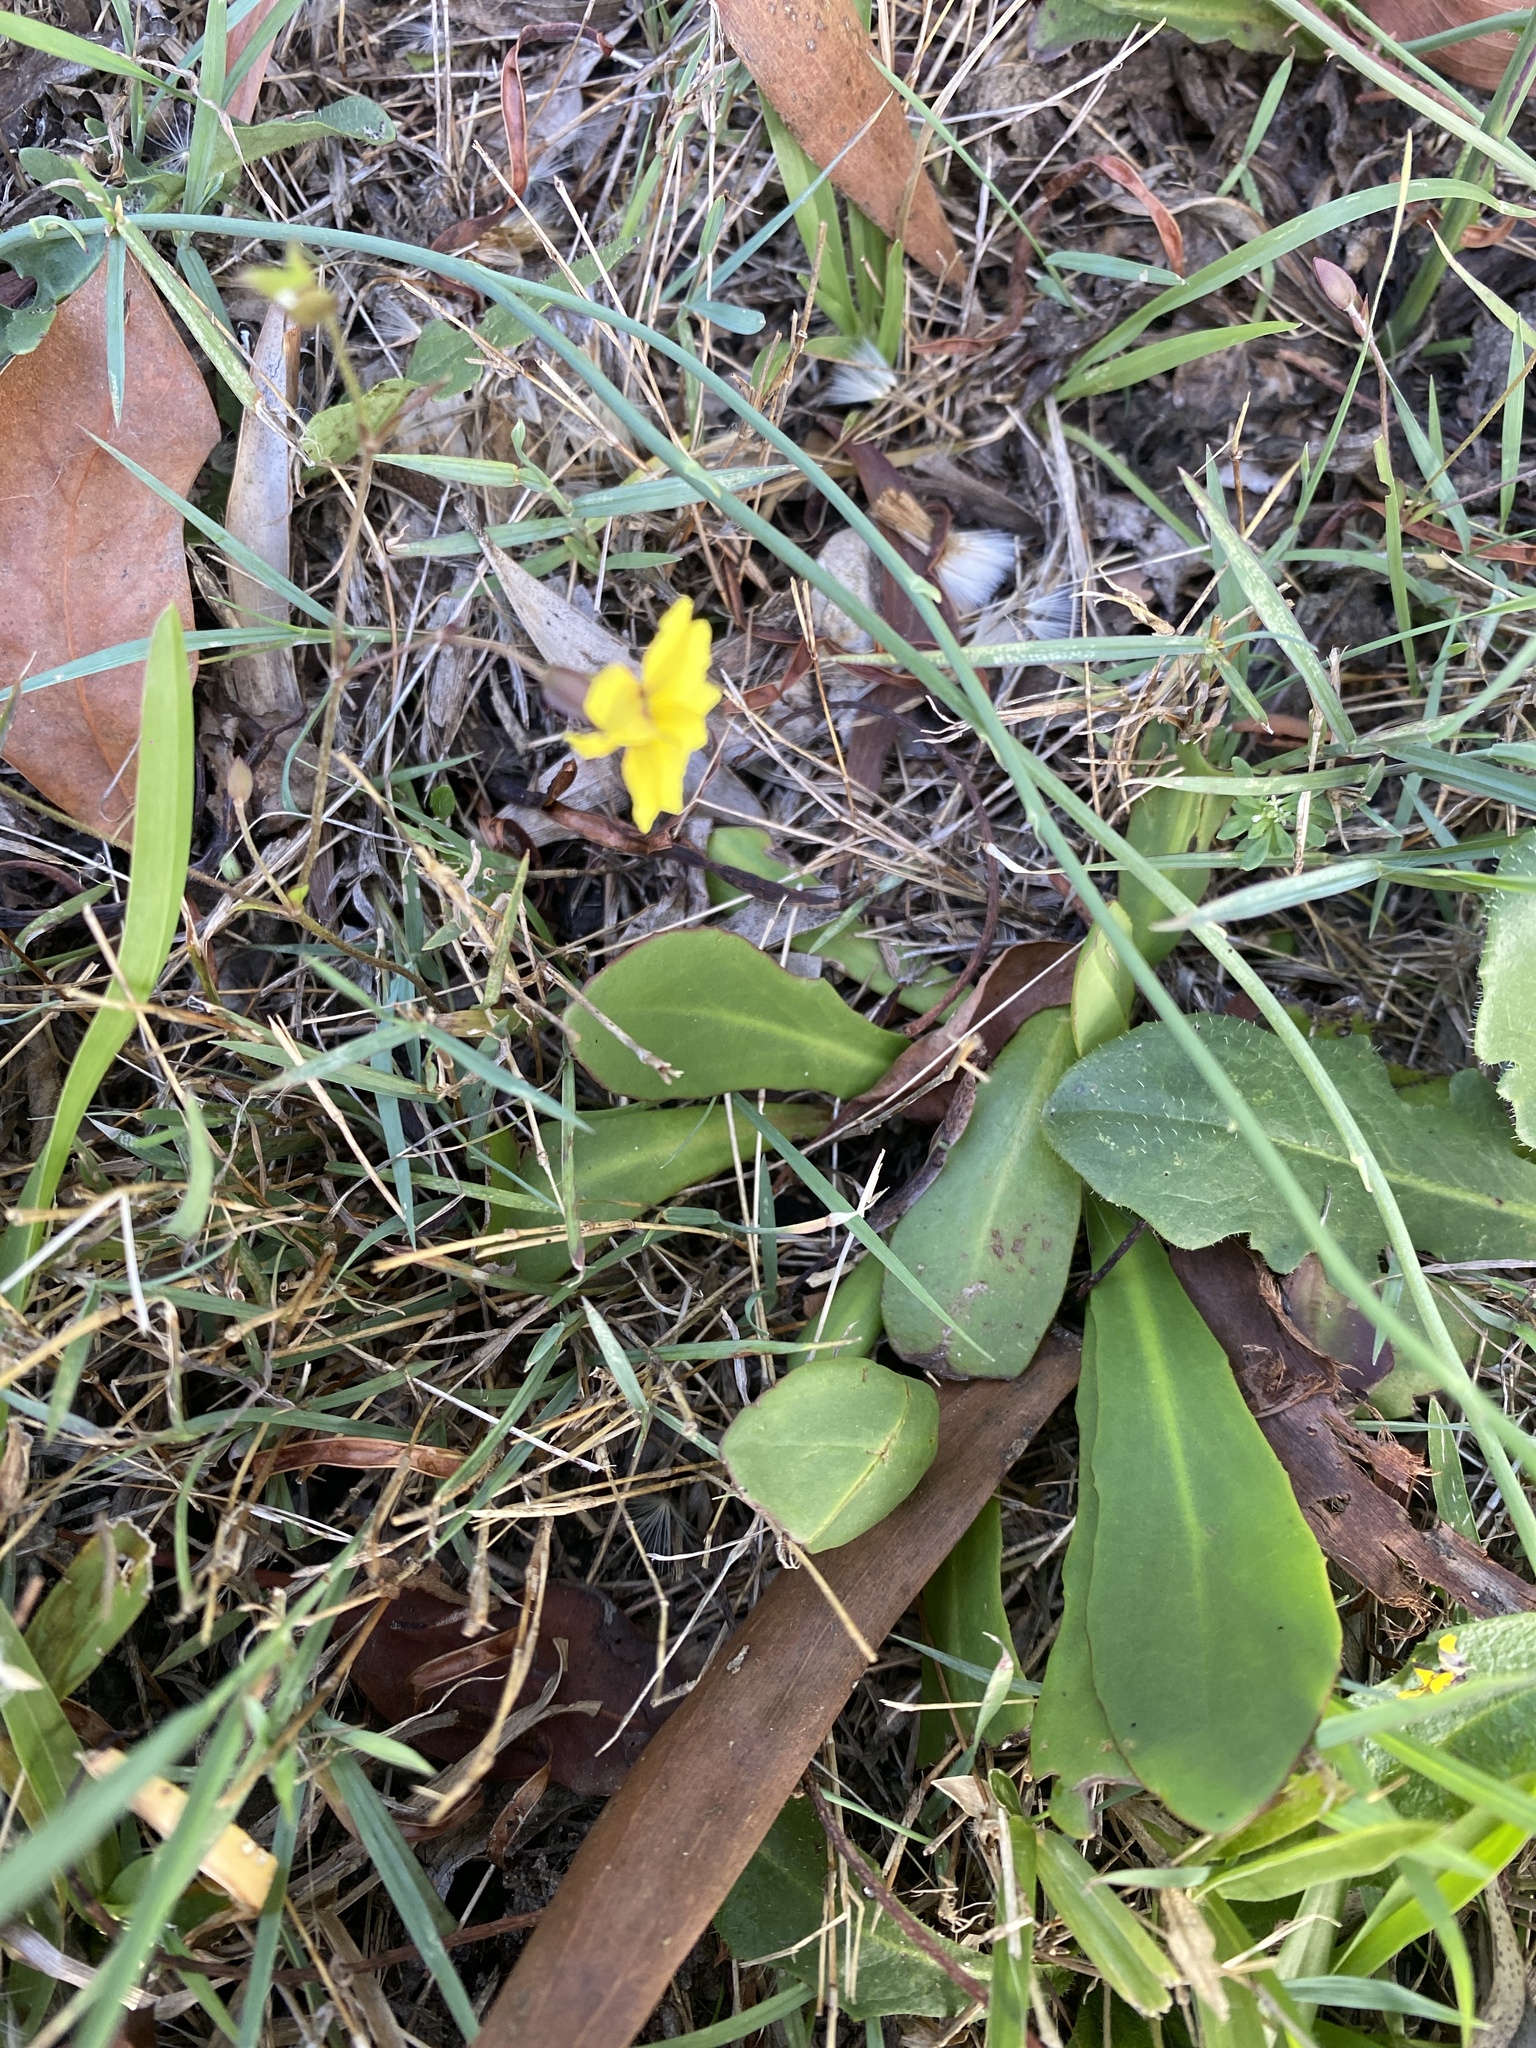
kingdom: Plantae
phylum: Tracheophyta
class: Magnoliopsida
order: Asterales
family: Goodeniaceae
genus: Goodenia
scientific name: Goodenia mystrophylla
